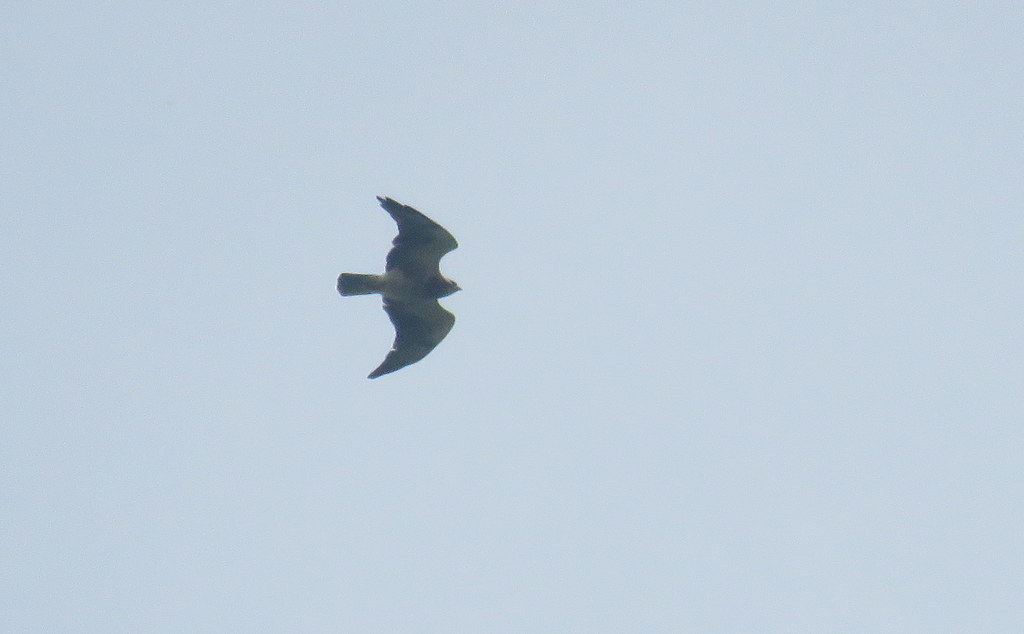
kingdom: Animalia
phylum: Chordata
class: Aves
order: Accipitriformes
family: Accipitridae
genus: Buteo
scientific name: Buteo swainsoni
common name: Swainson's hawk
